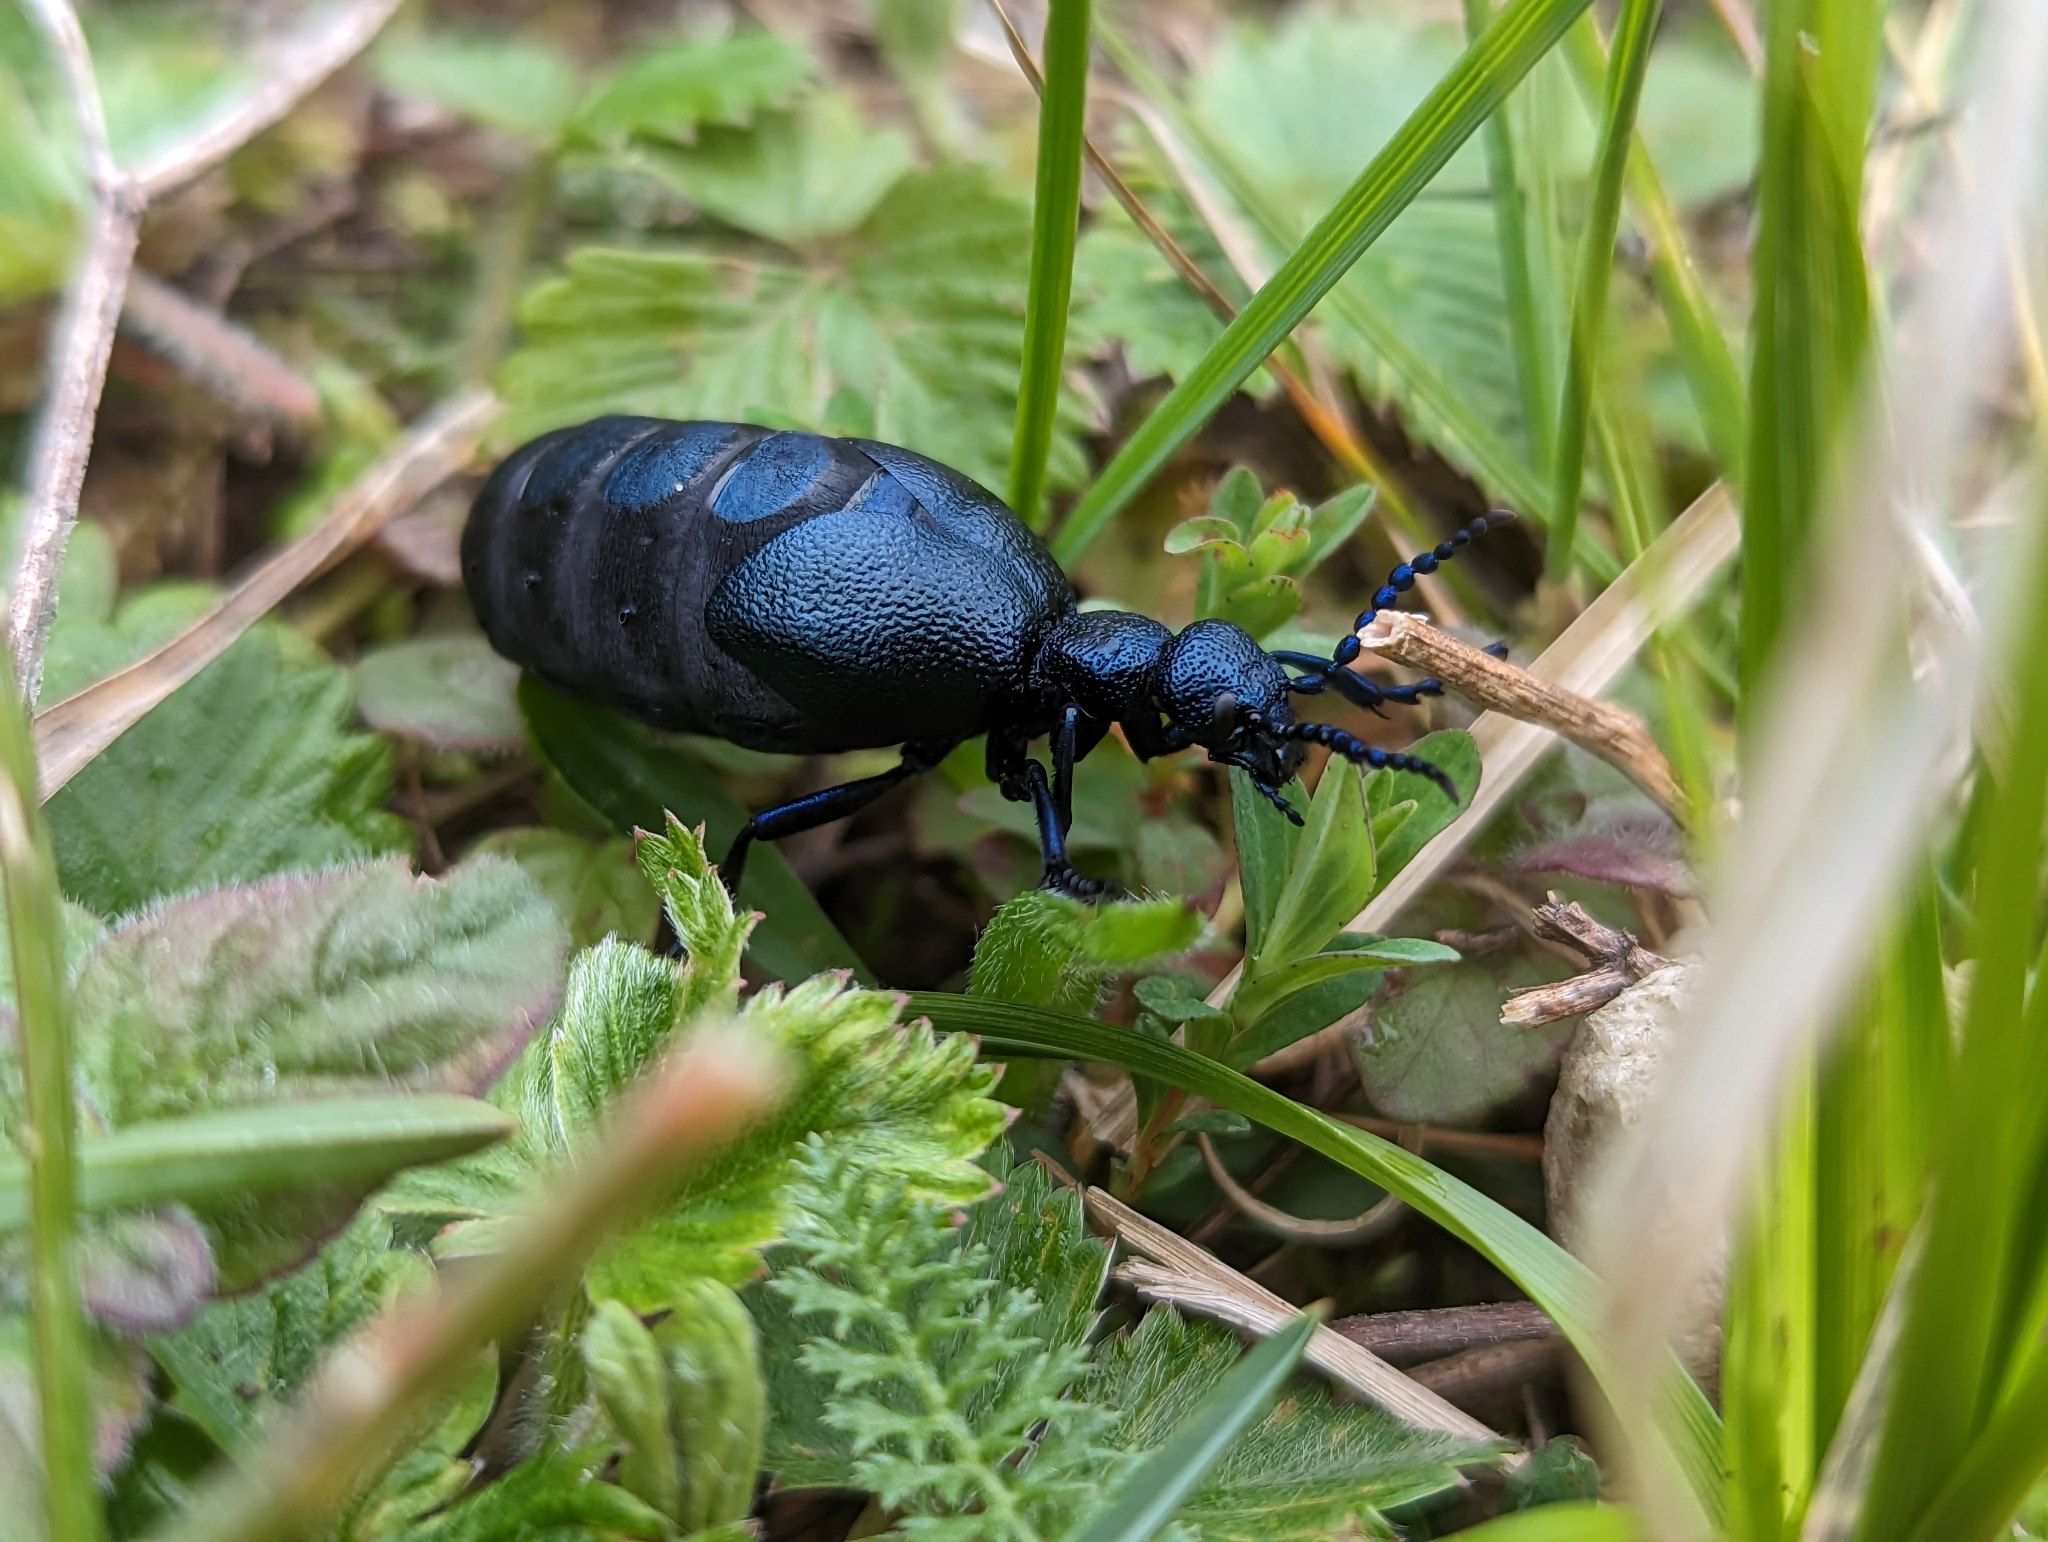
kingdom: Animalia
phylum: Arthropoda
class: Insecta
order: Coleoptera
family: Meloidae
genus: Meloe
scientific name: Meloe proscarabaeus
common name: Black oil-beetle
